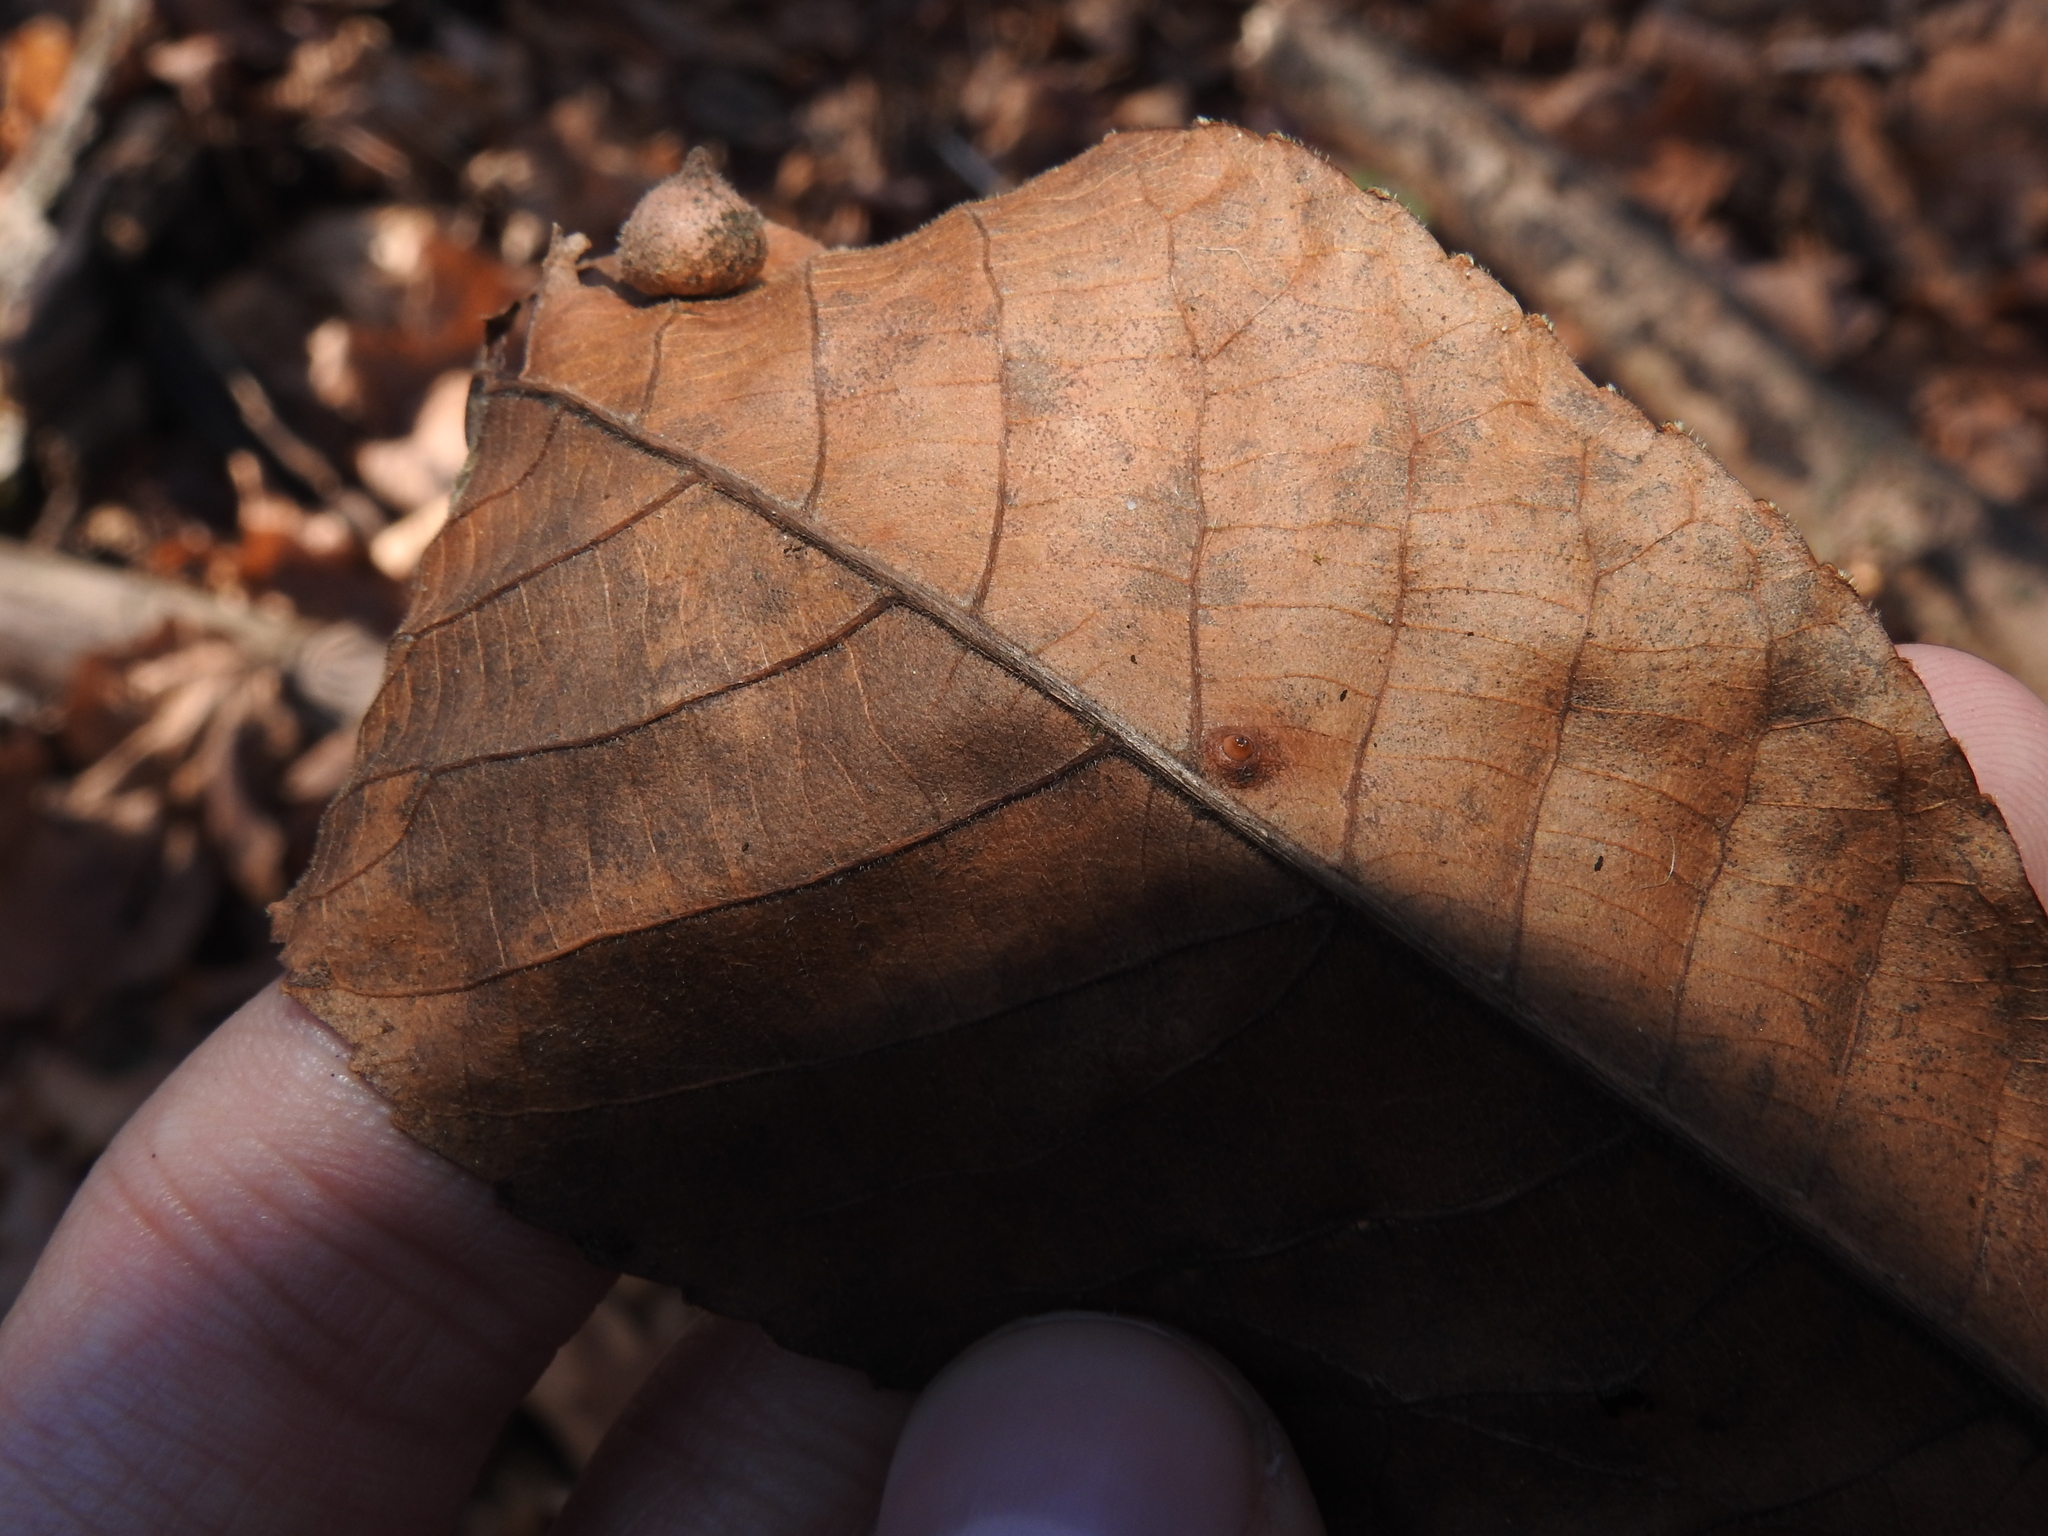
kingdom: Animalia
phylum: Arthropoda
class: Insecta
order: Diptera
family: Cecidomyiidae
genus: Caryomyia
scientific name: Caryomyia tubicola
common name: Hickory bullet gall midge
